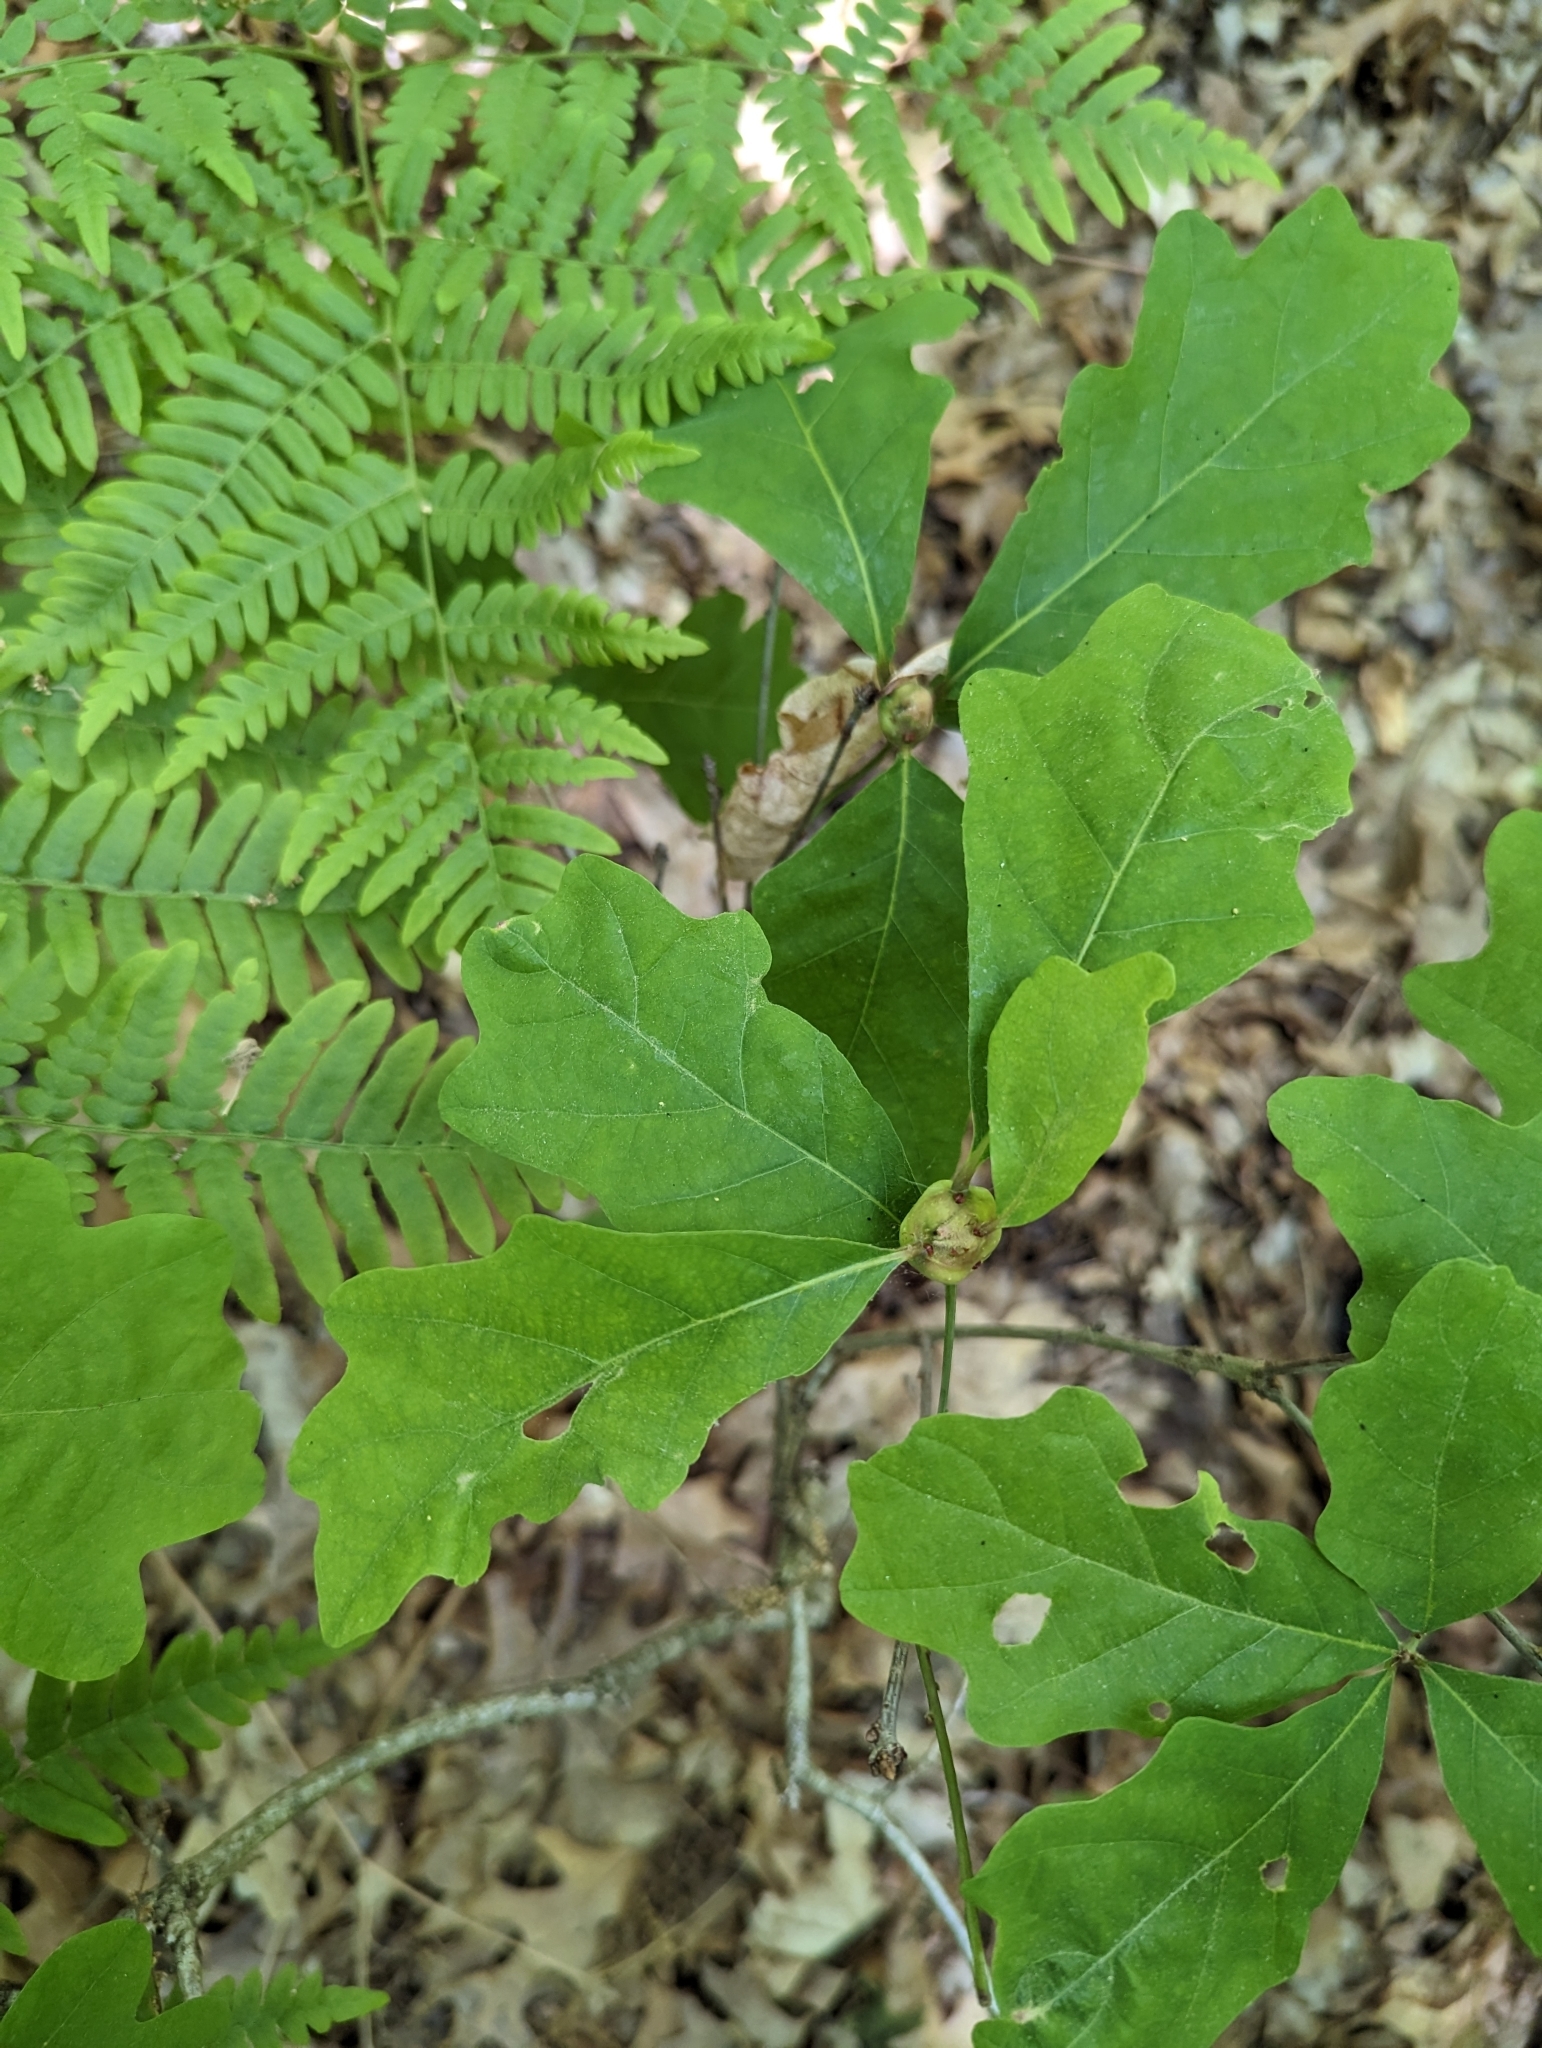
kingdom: Animalia
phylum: Arthropoda
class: Insecta
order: Hymenoptera
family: Cynipidae
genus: Callirhytis
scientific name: Callirhytis clavula
